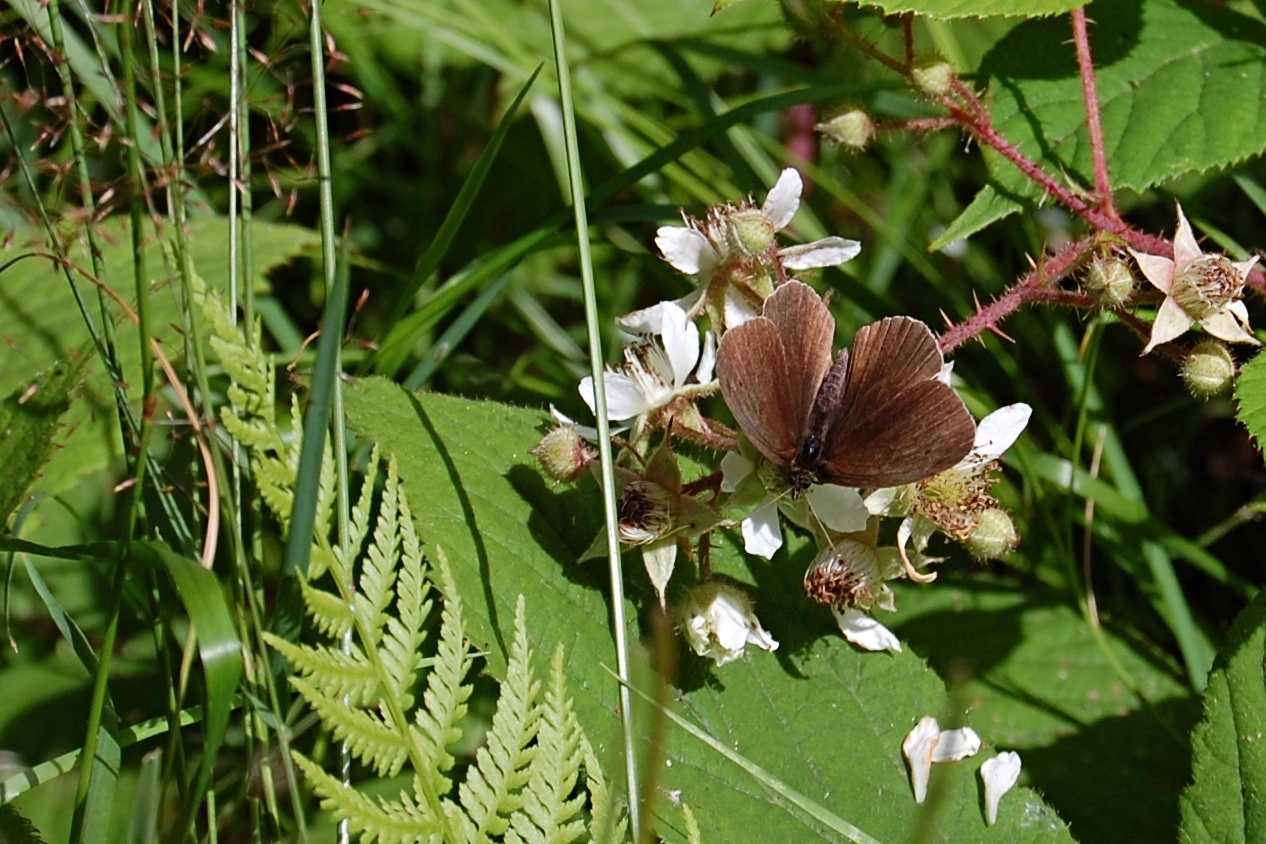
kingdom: Animalia
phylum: Arthropoda
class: Insecta
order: Lepidoptera
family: Nymphalidae
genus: Aphantopus
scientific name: Aphantopus hyperantus
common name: Ringlet
